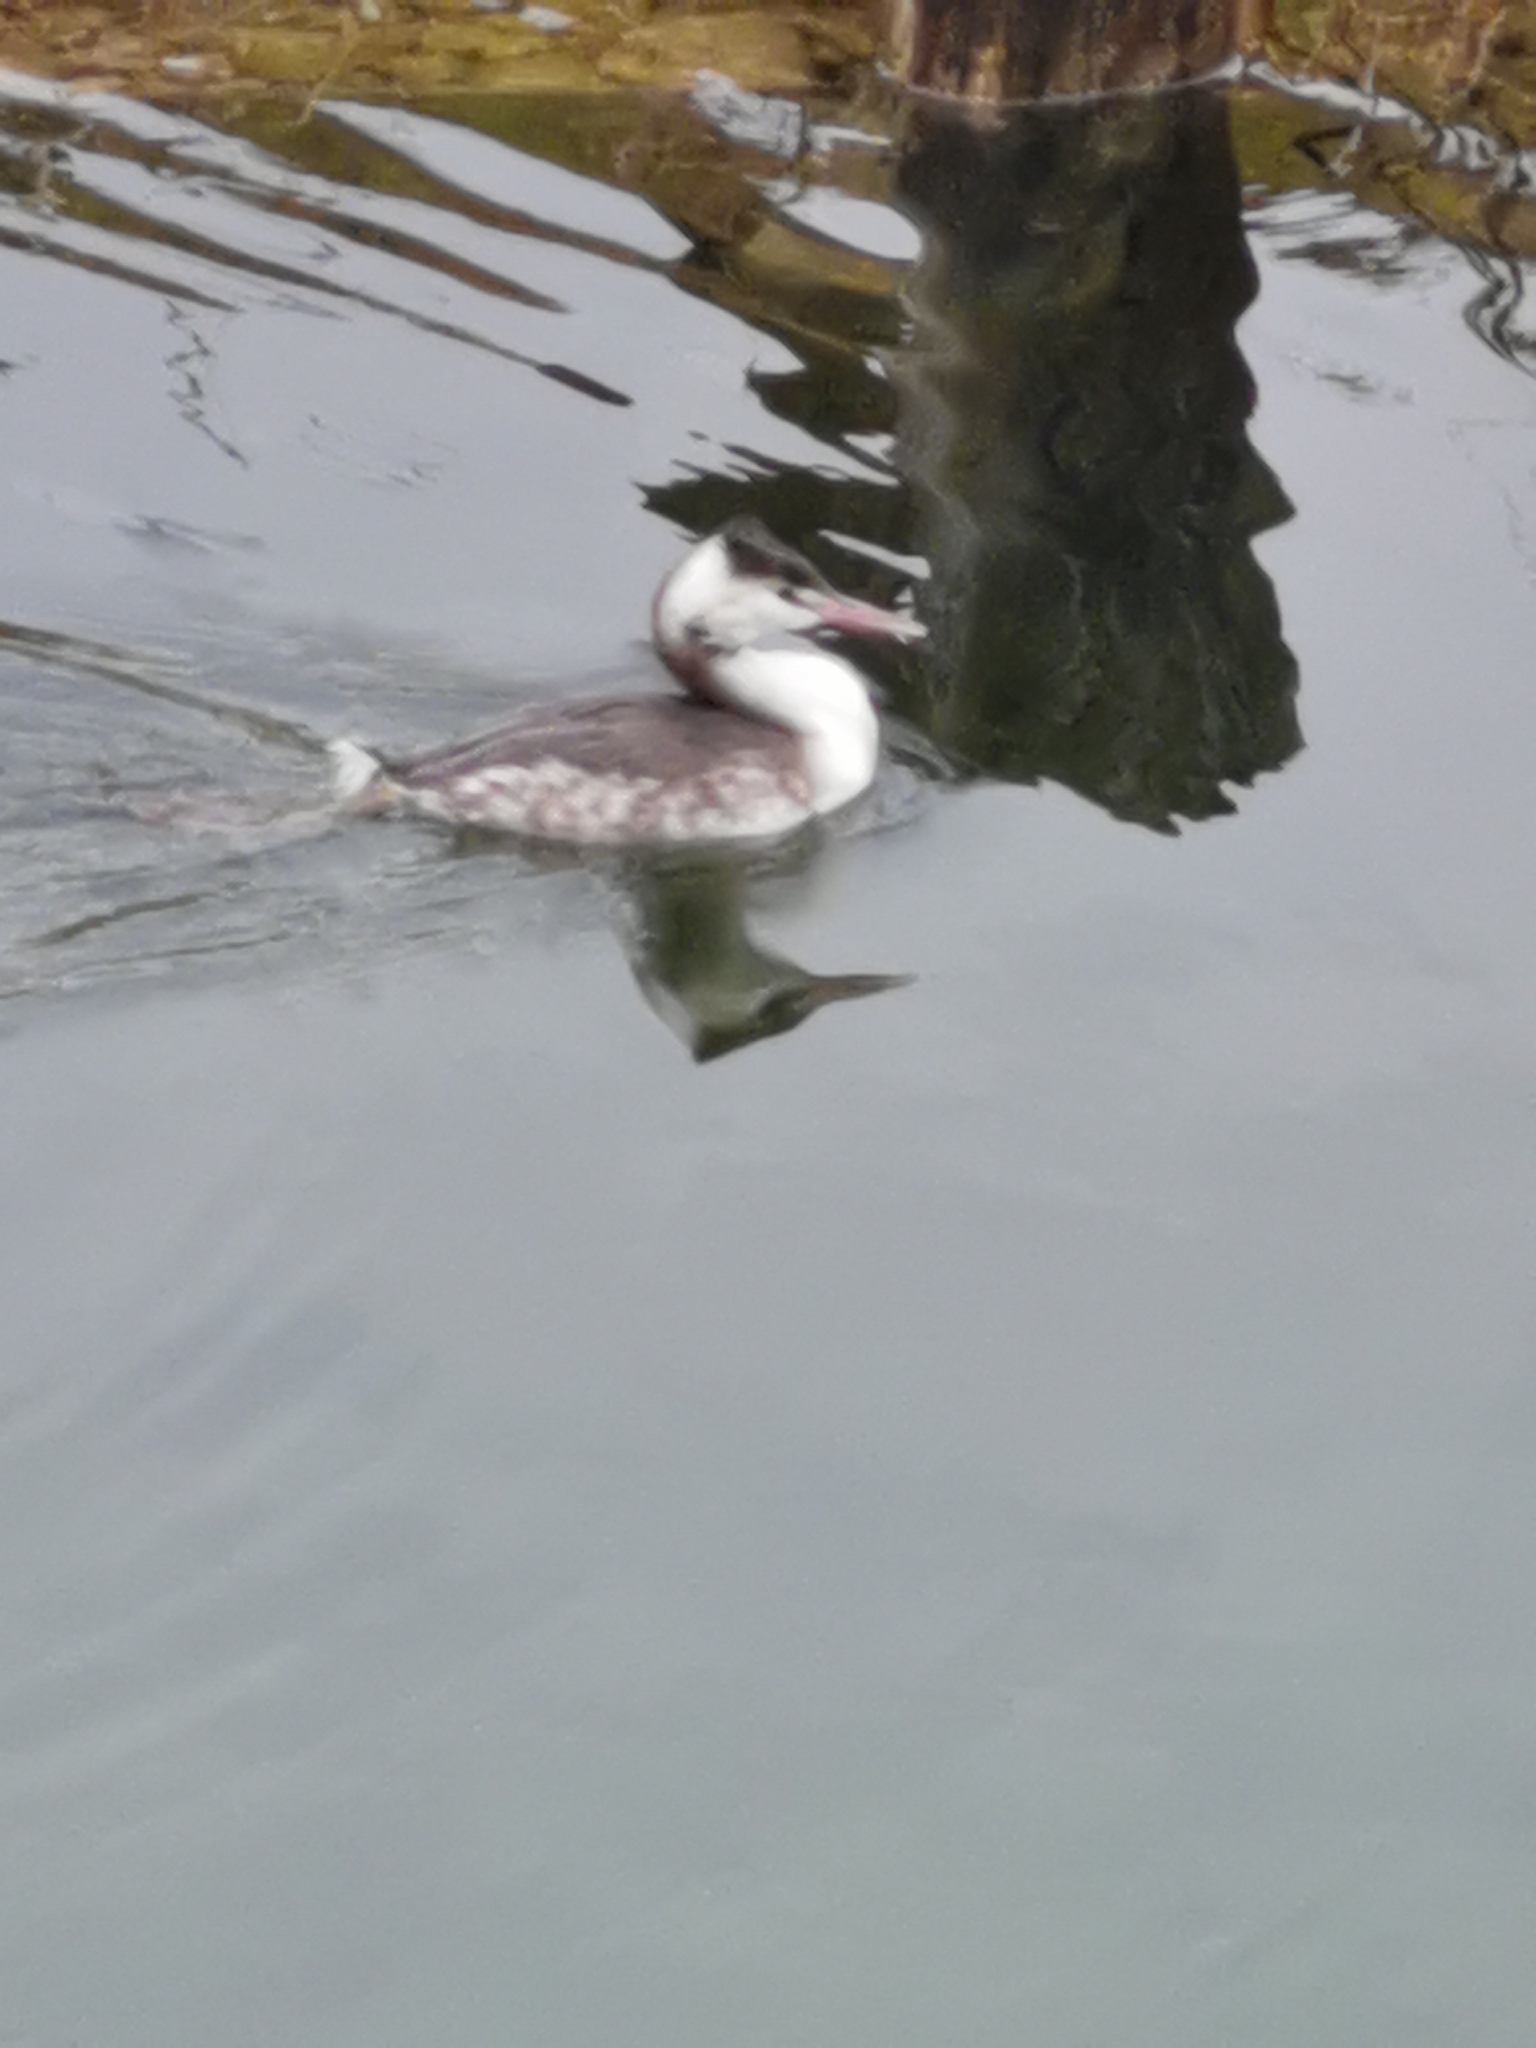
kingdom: Animalia
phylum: Chordata
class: Aves
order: Podicipediformes
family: Podicipedidae
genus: Podiceps
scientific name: Podiceps cristatus
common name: Great crested grebe
